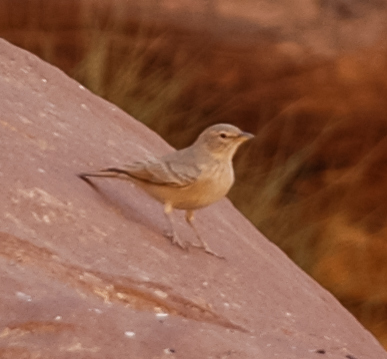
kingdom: Animalia
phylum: Chordata
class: Aves
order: Passeriformes
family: Alaudidae
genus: Ammomanes
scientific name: Ammomanes deserti
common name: Desert lark
